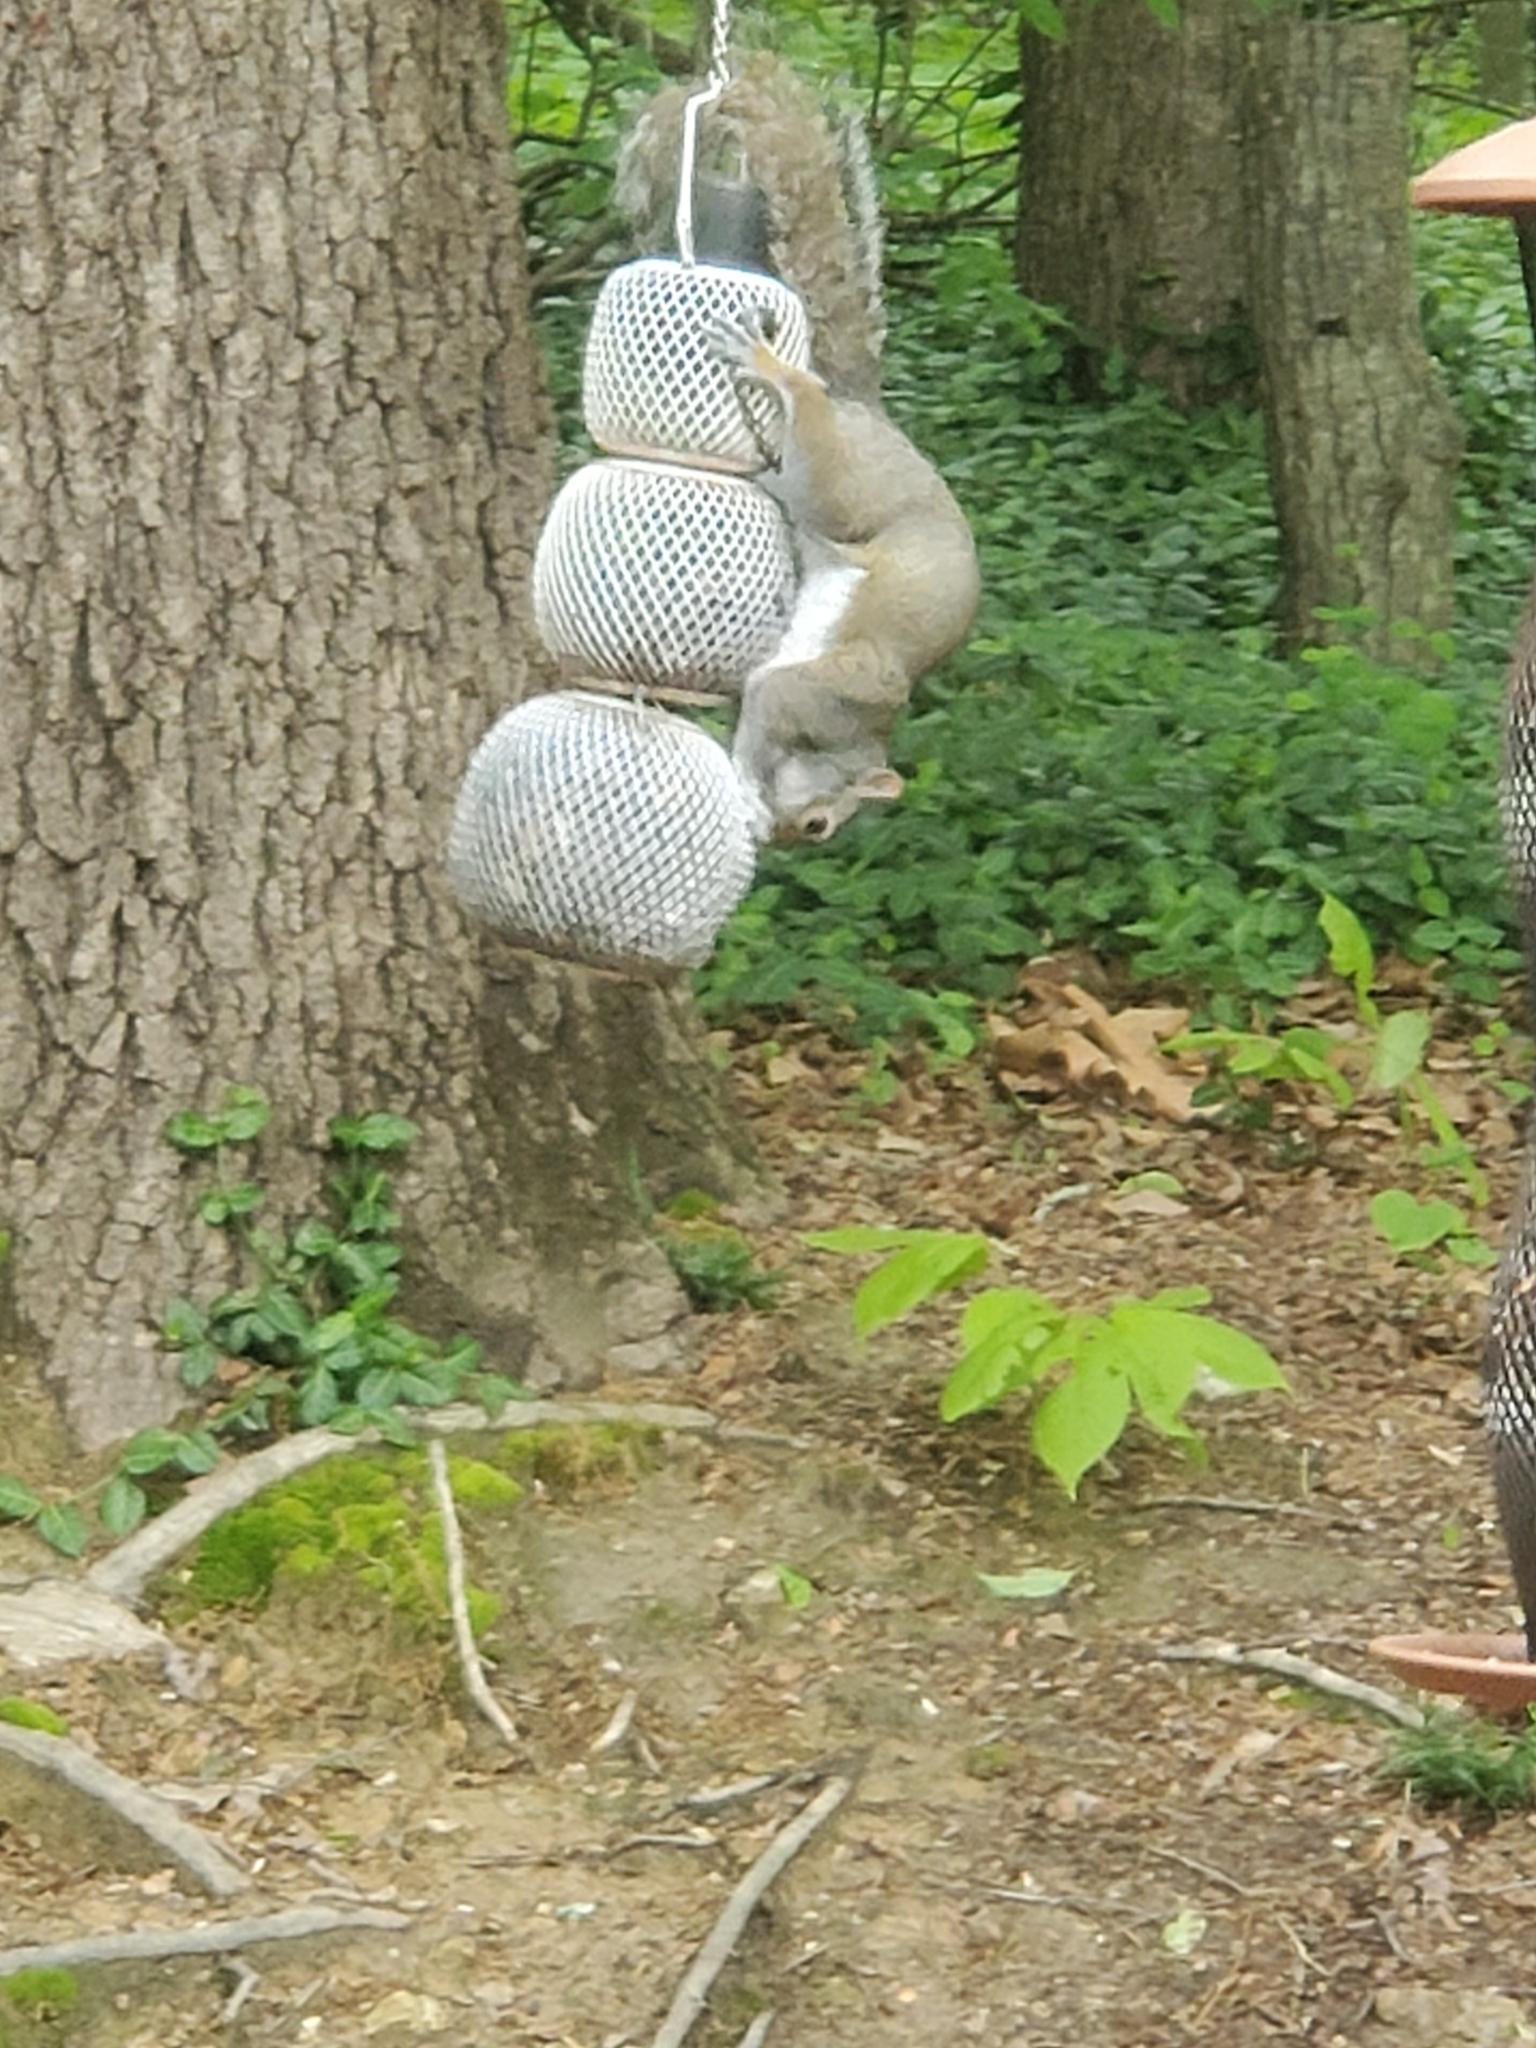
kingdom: Animalia
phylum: Chordata
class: Mammalia
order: Rodentia
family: Sciuridae
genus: Sciurus
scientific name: Sciurus carolinensis
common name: Eastern gray squirrel
